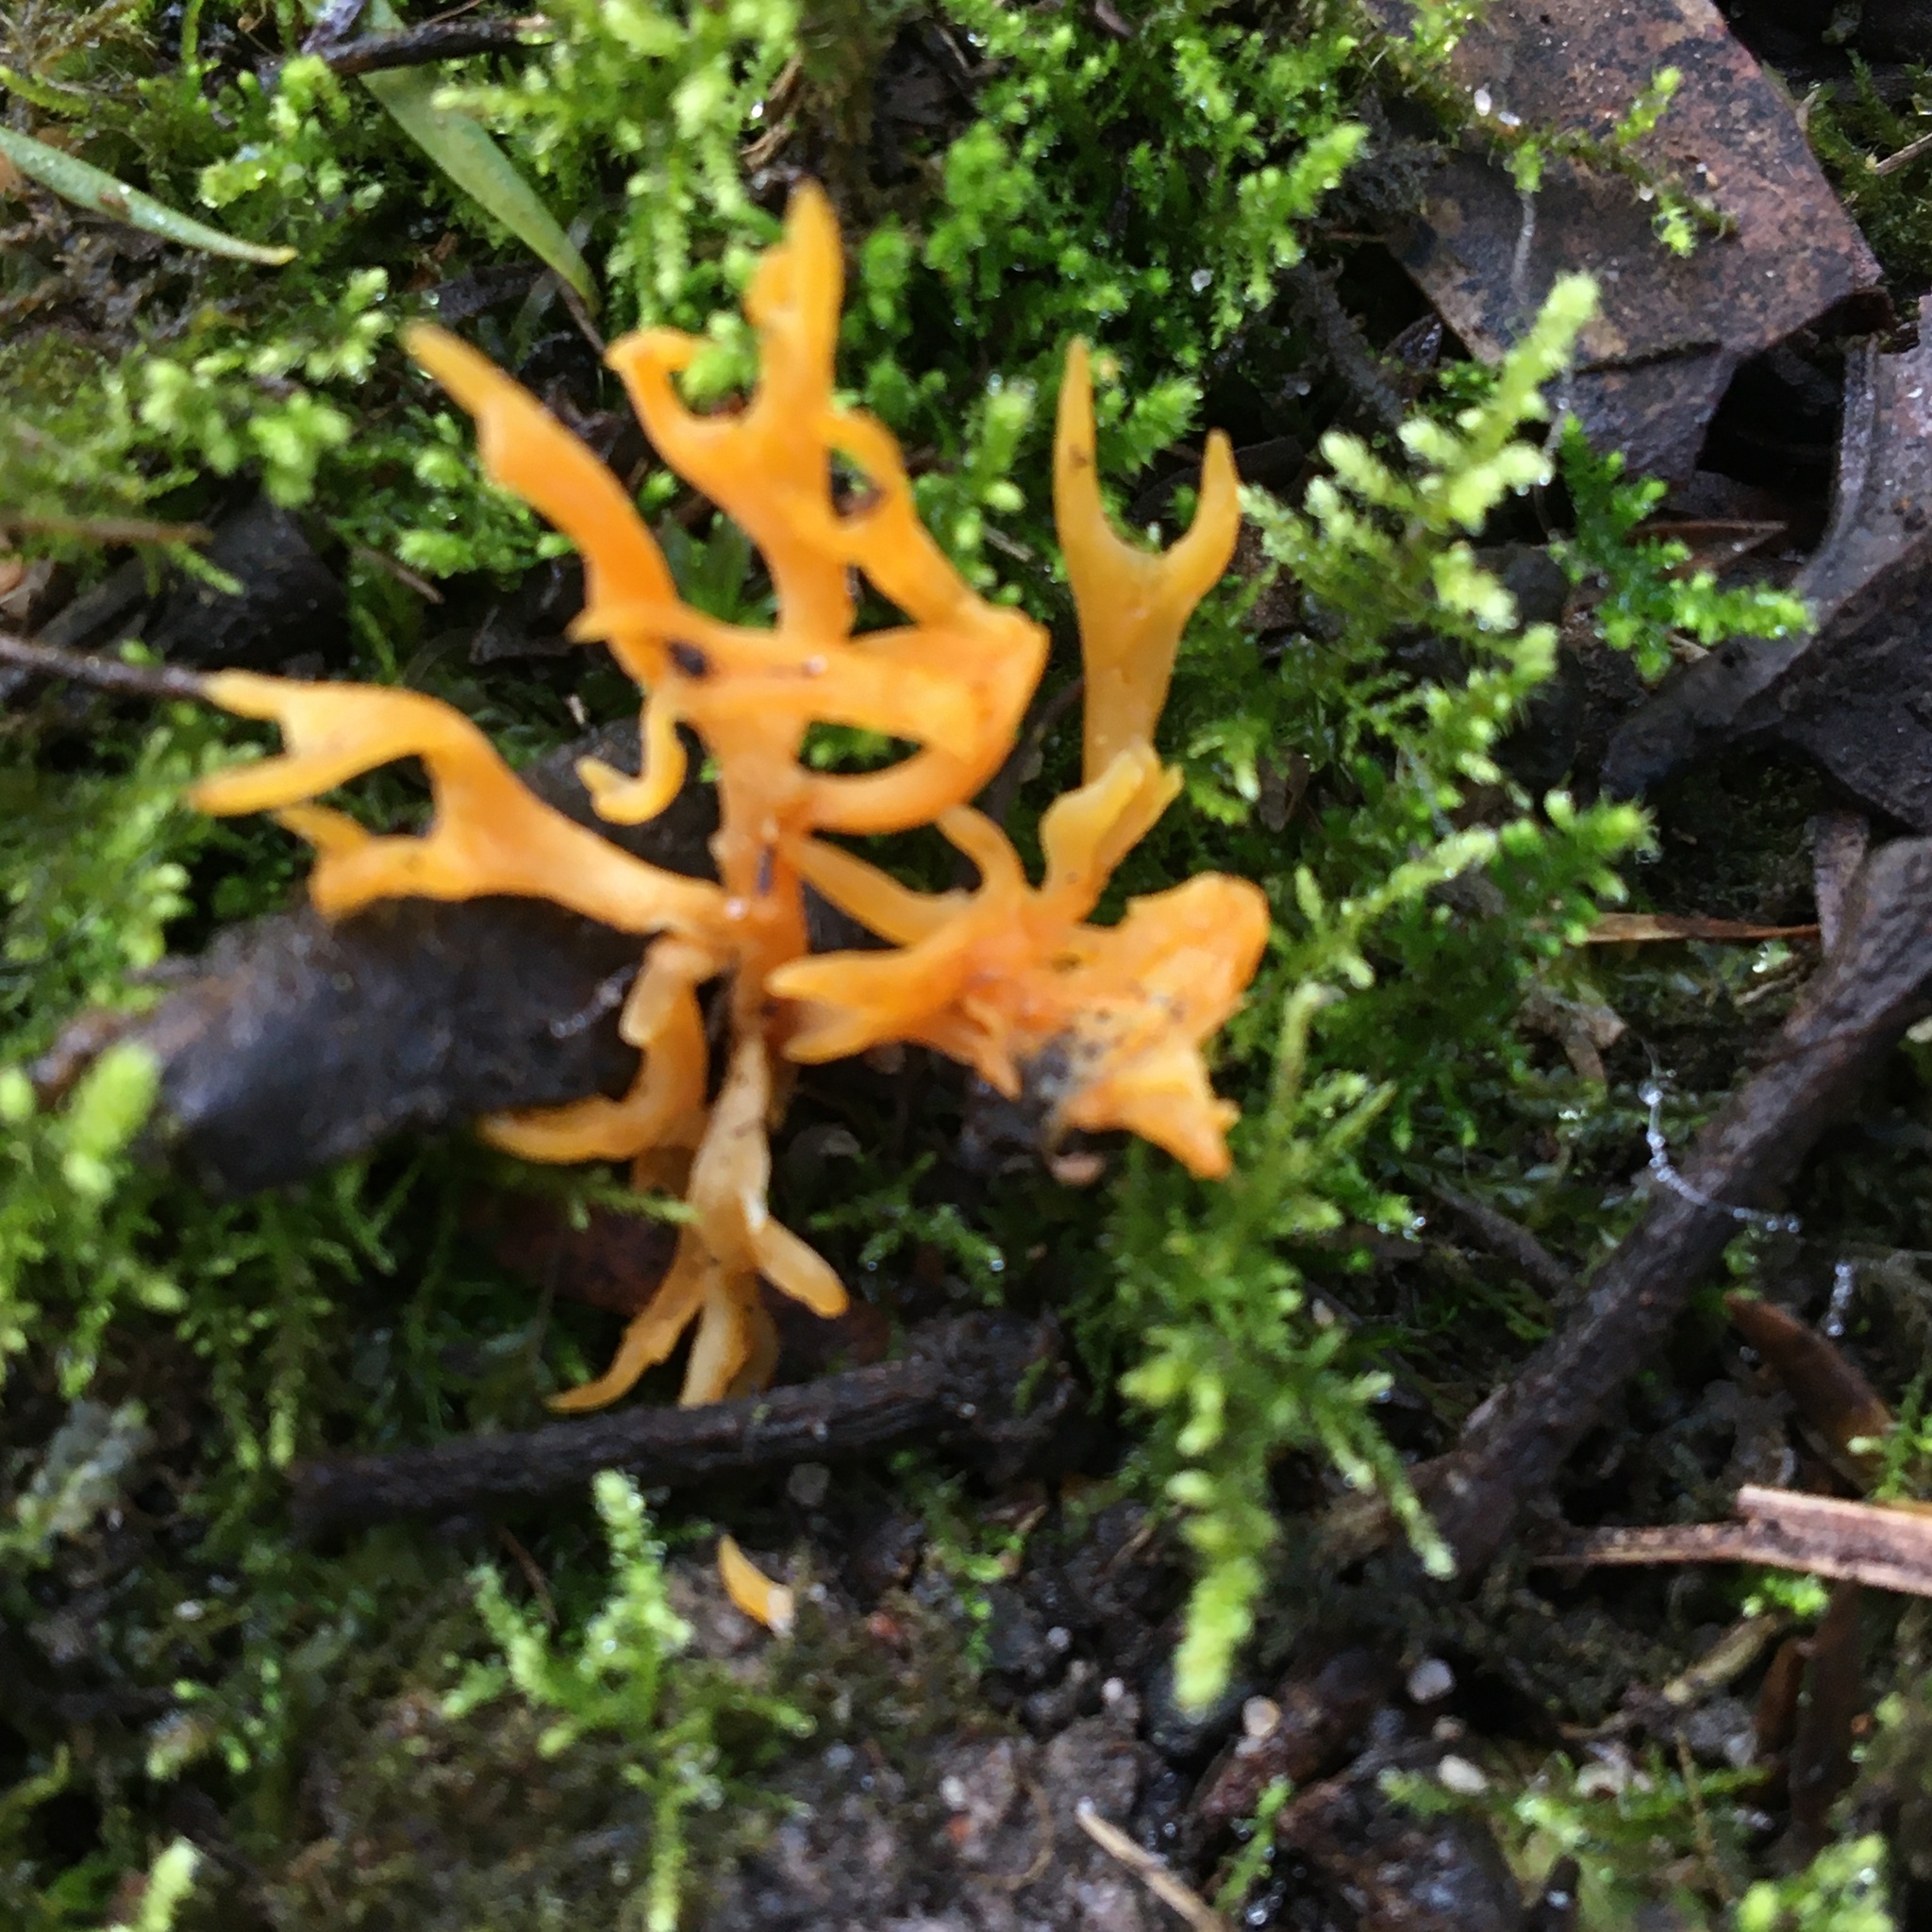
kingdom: Fungi
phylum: Basidiomycota
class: Agaricomycetes
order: Agaricales
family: Clavariaceae
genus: Ramariopsis
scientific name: Ramariopsis crocea
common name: Orange coral
